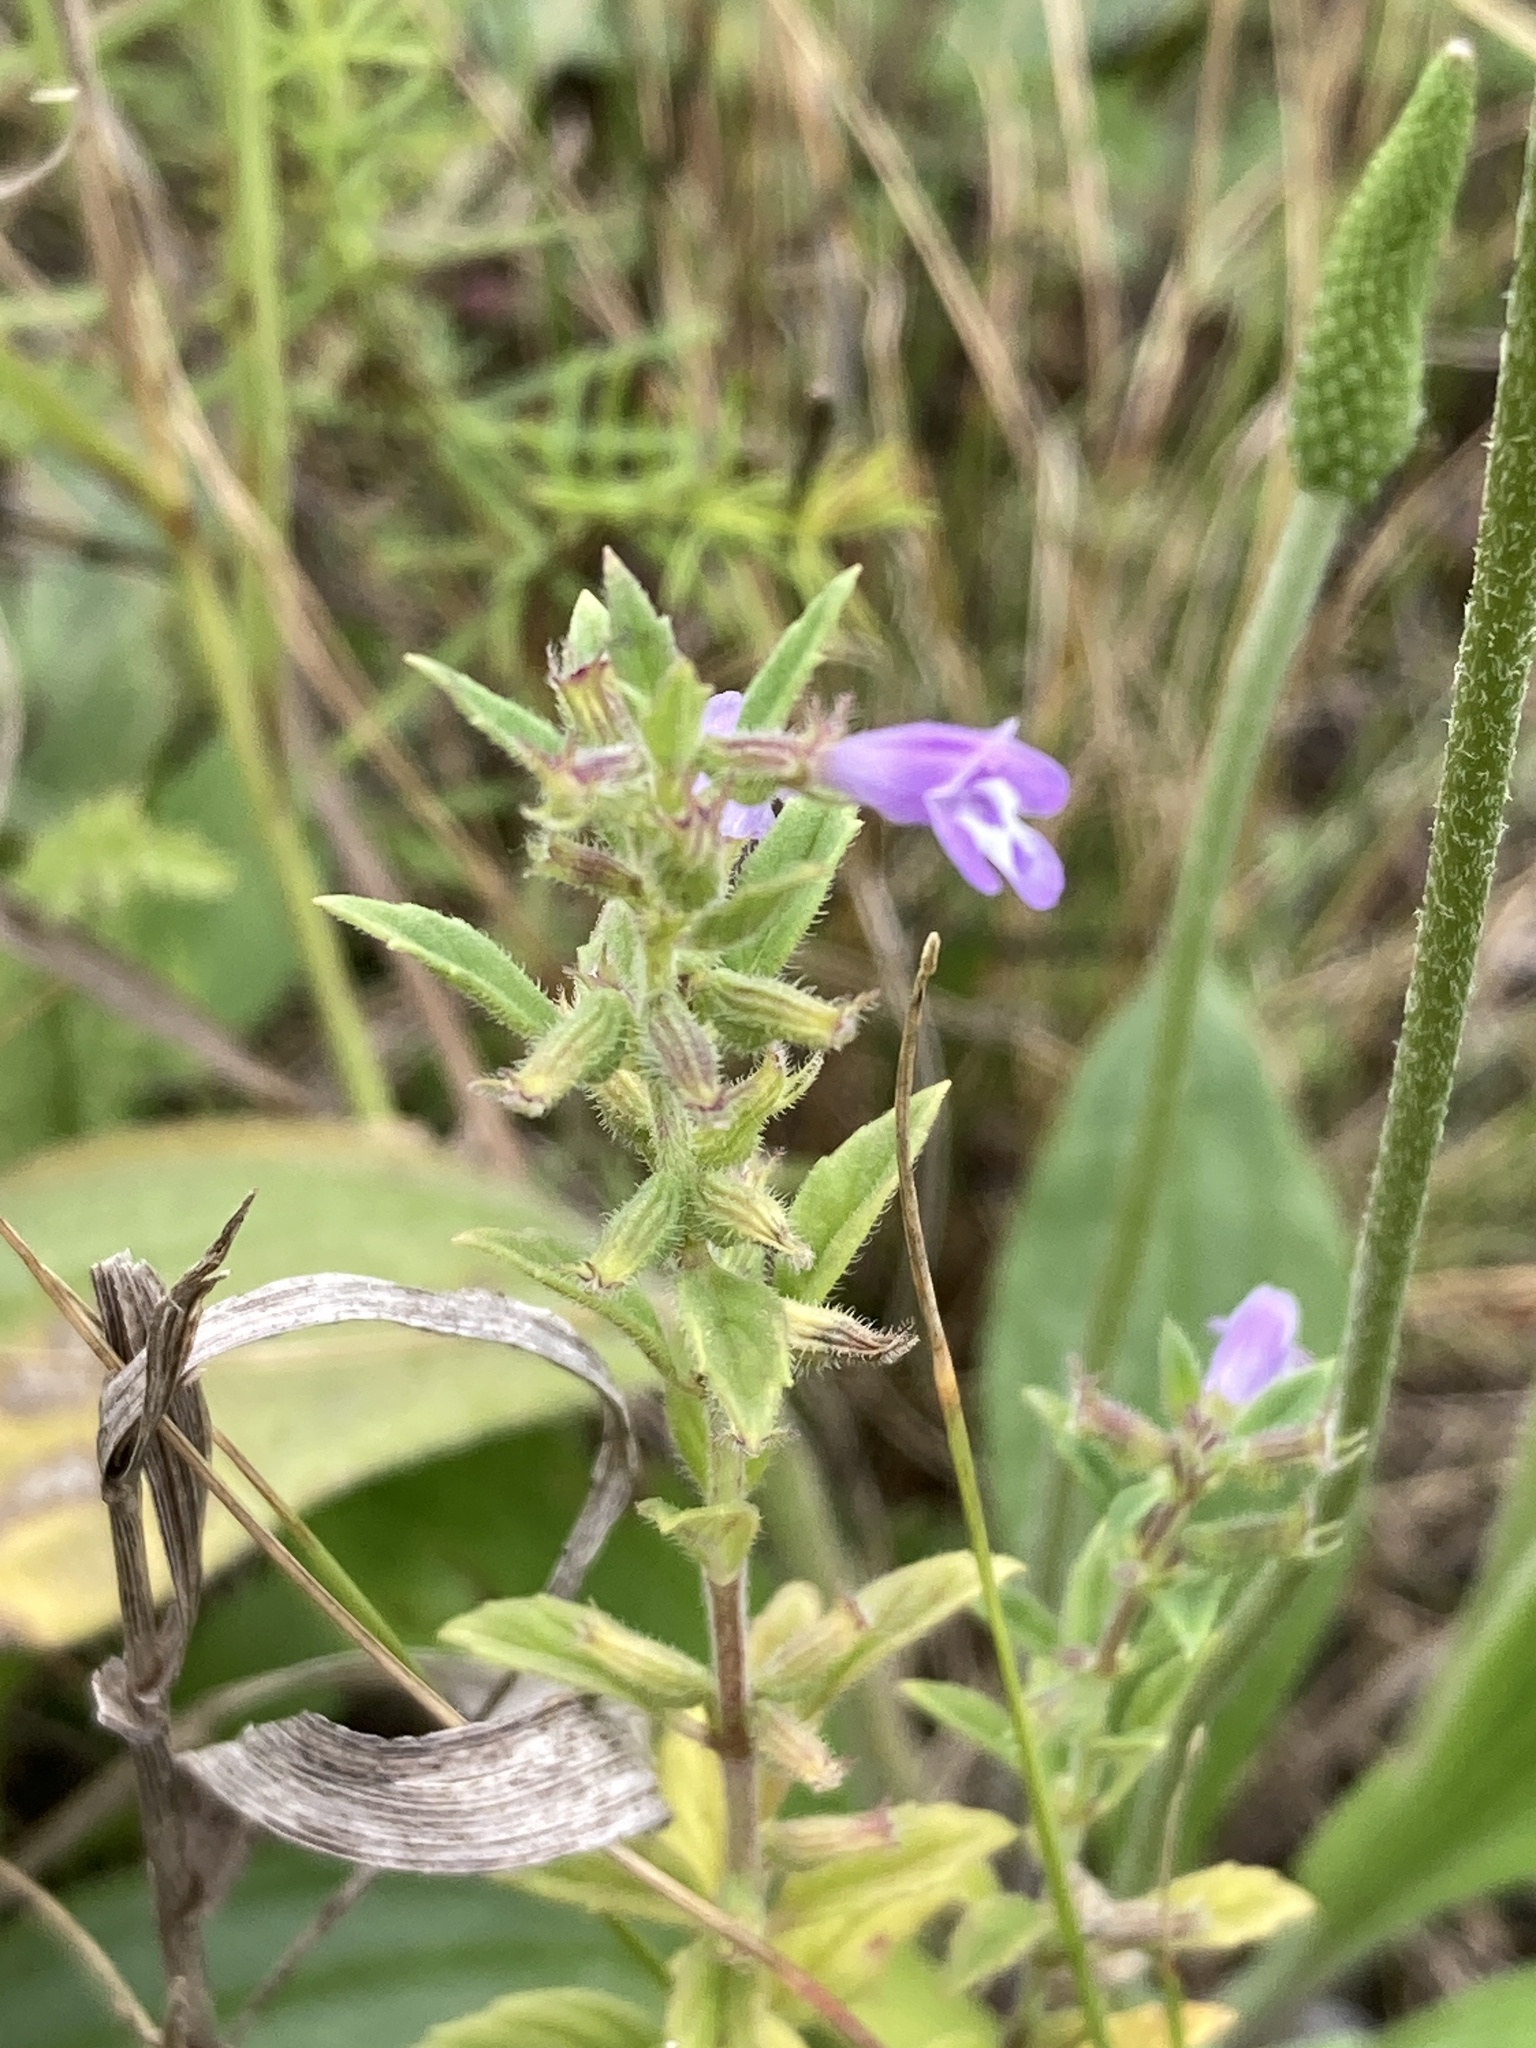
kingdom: Plantae
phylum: Tracheophyta
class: Magnoliopsida
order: Lamiales
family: Lamiaceae
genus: Clinopodium
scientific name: Clinopodium acinos
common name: Basil thyme
